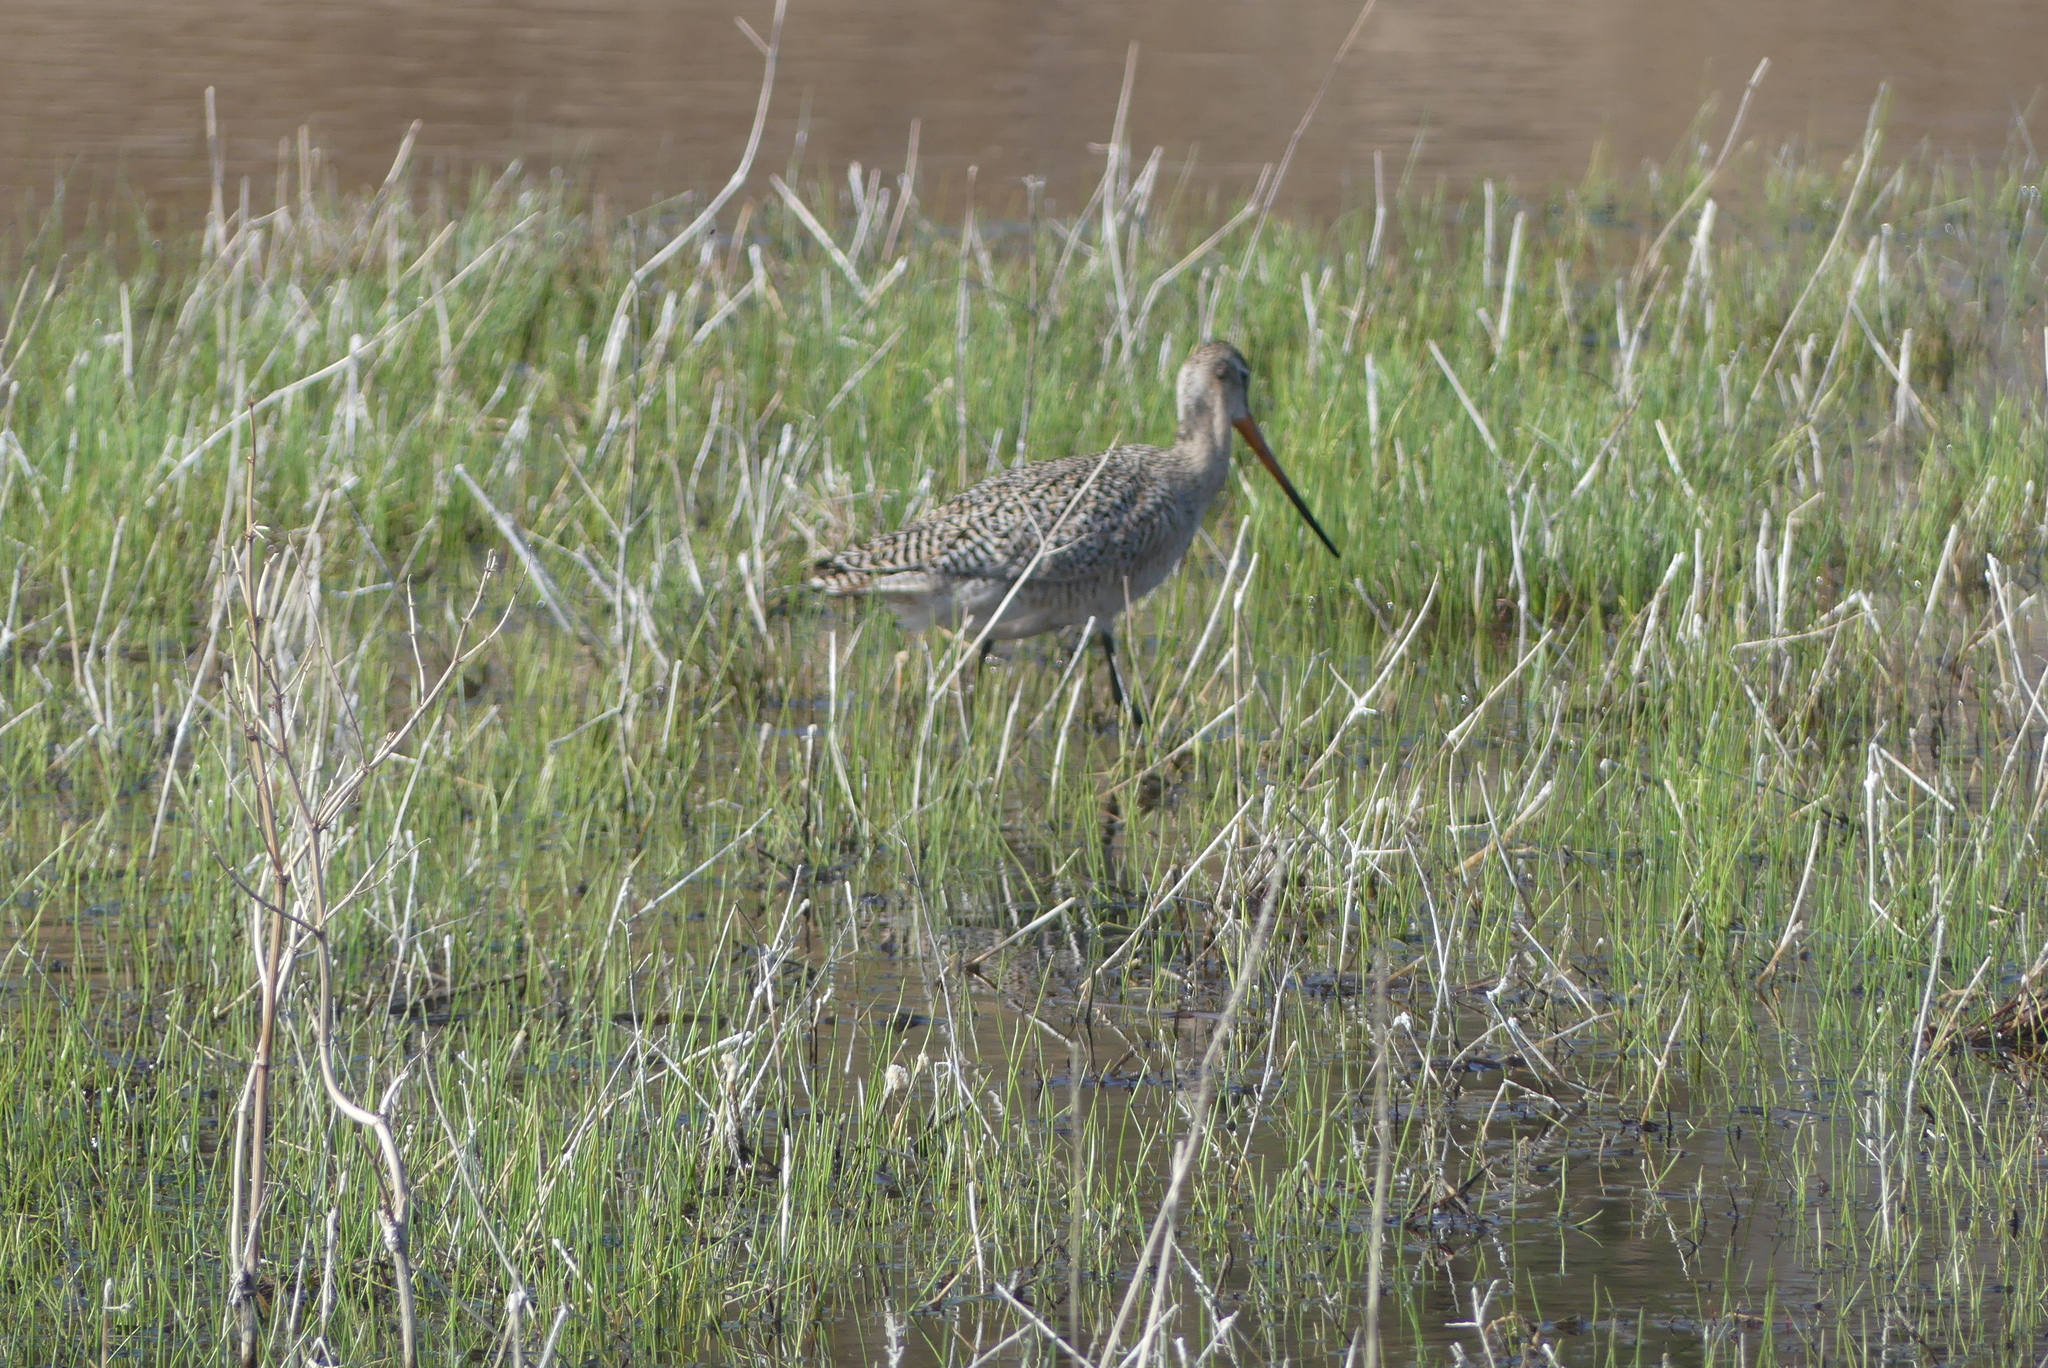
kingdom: Animalia
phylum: Chordata
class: Aves
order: Charadriiformes
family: Scolopacidae
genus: Limosa
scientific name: Limosa fedoa
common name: Marbled godwit
